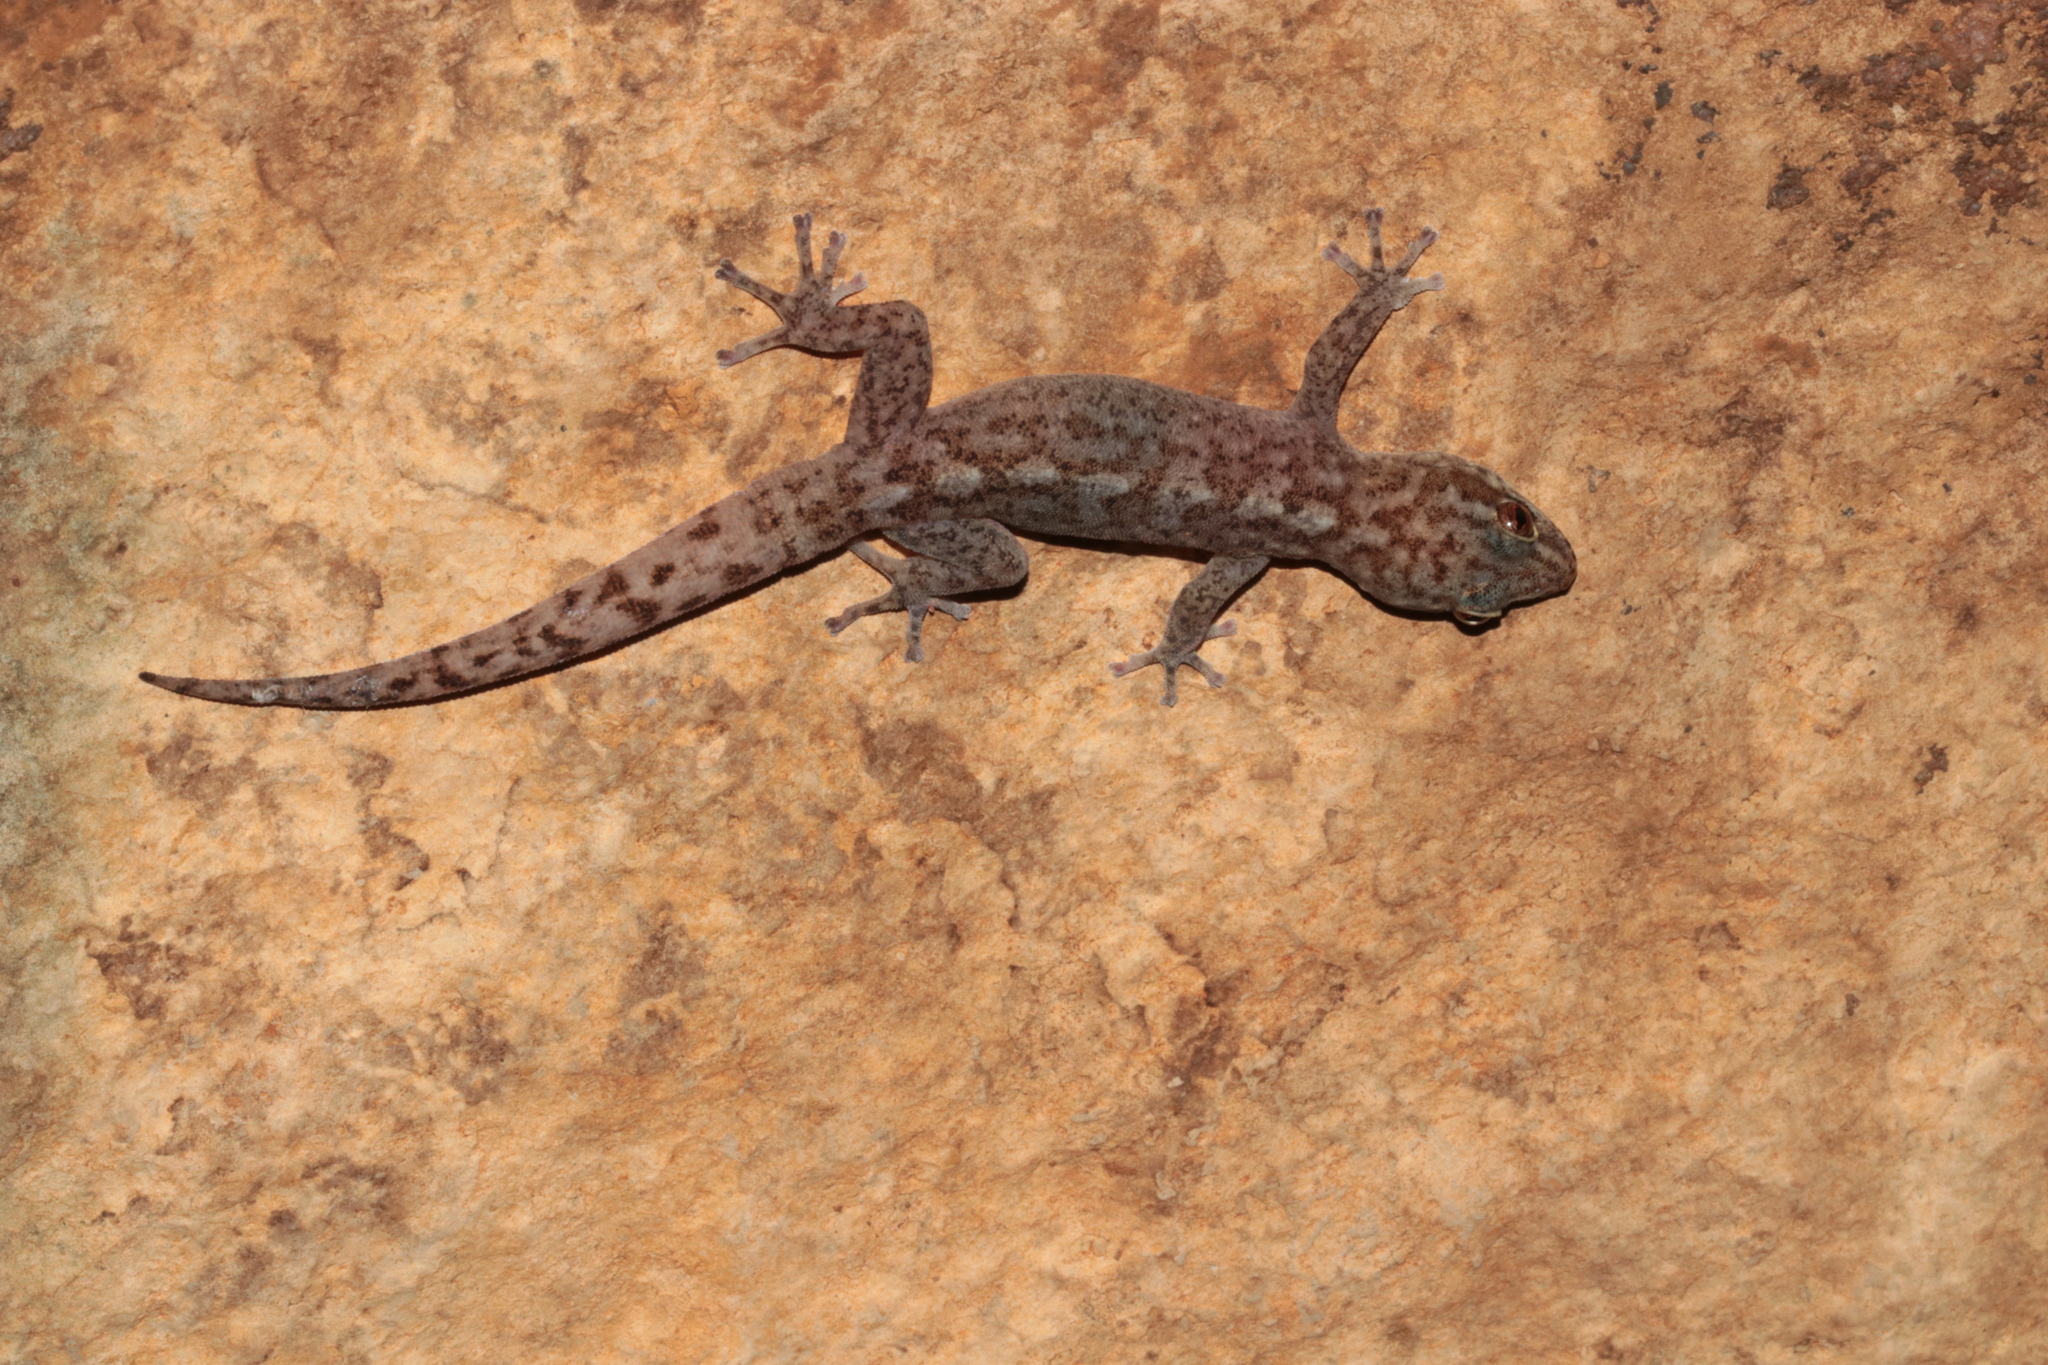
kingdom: Animalia
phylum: Chordata
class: Squamata
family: Gekkonidae
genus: Afroedura
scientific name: Afroedura pienaari
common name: Pienaar’s rock gecko
